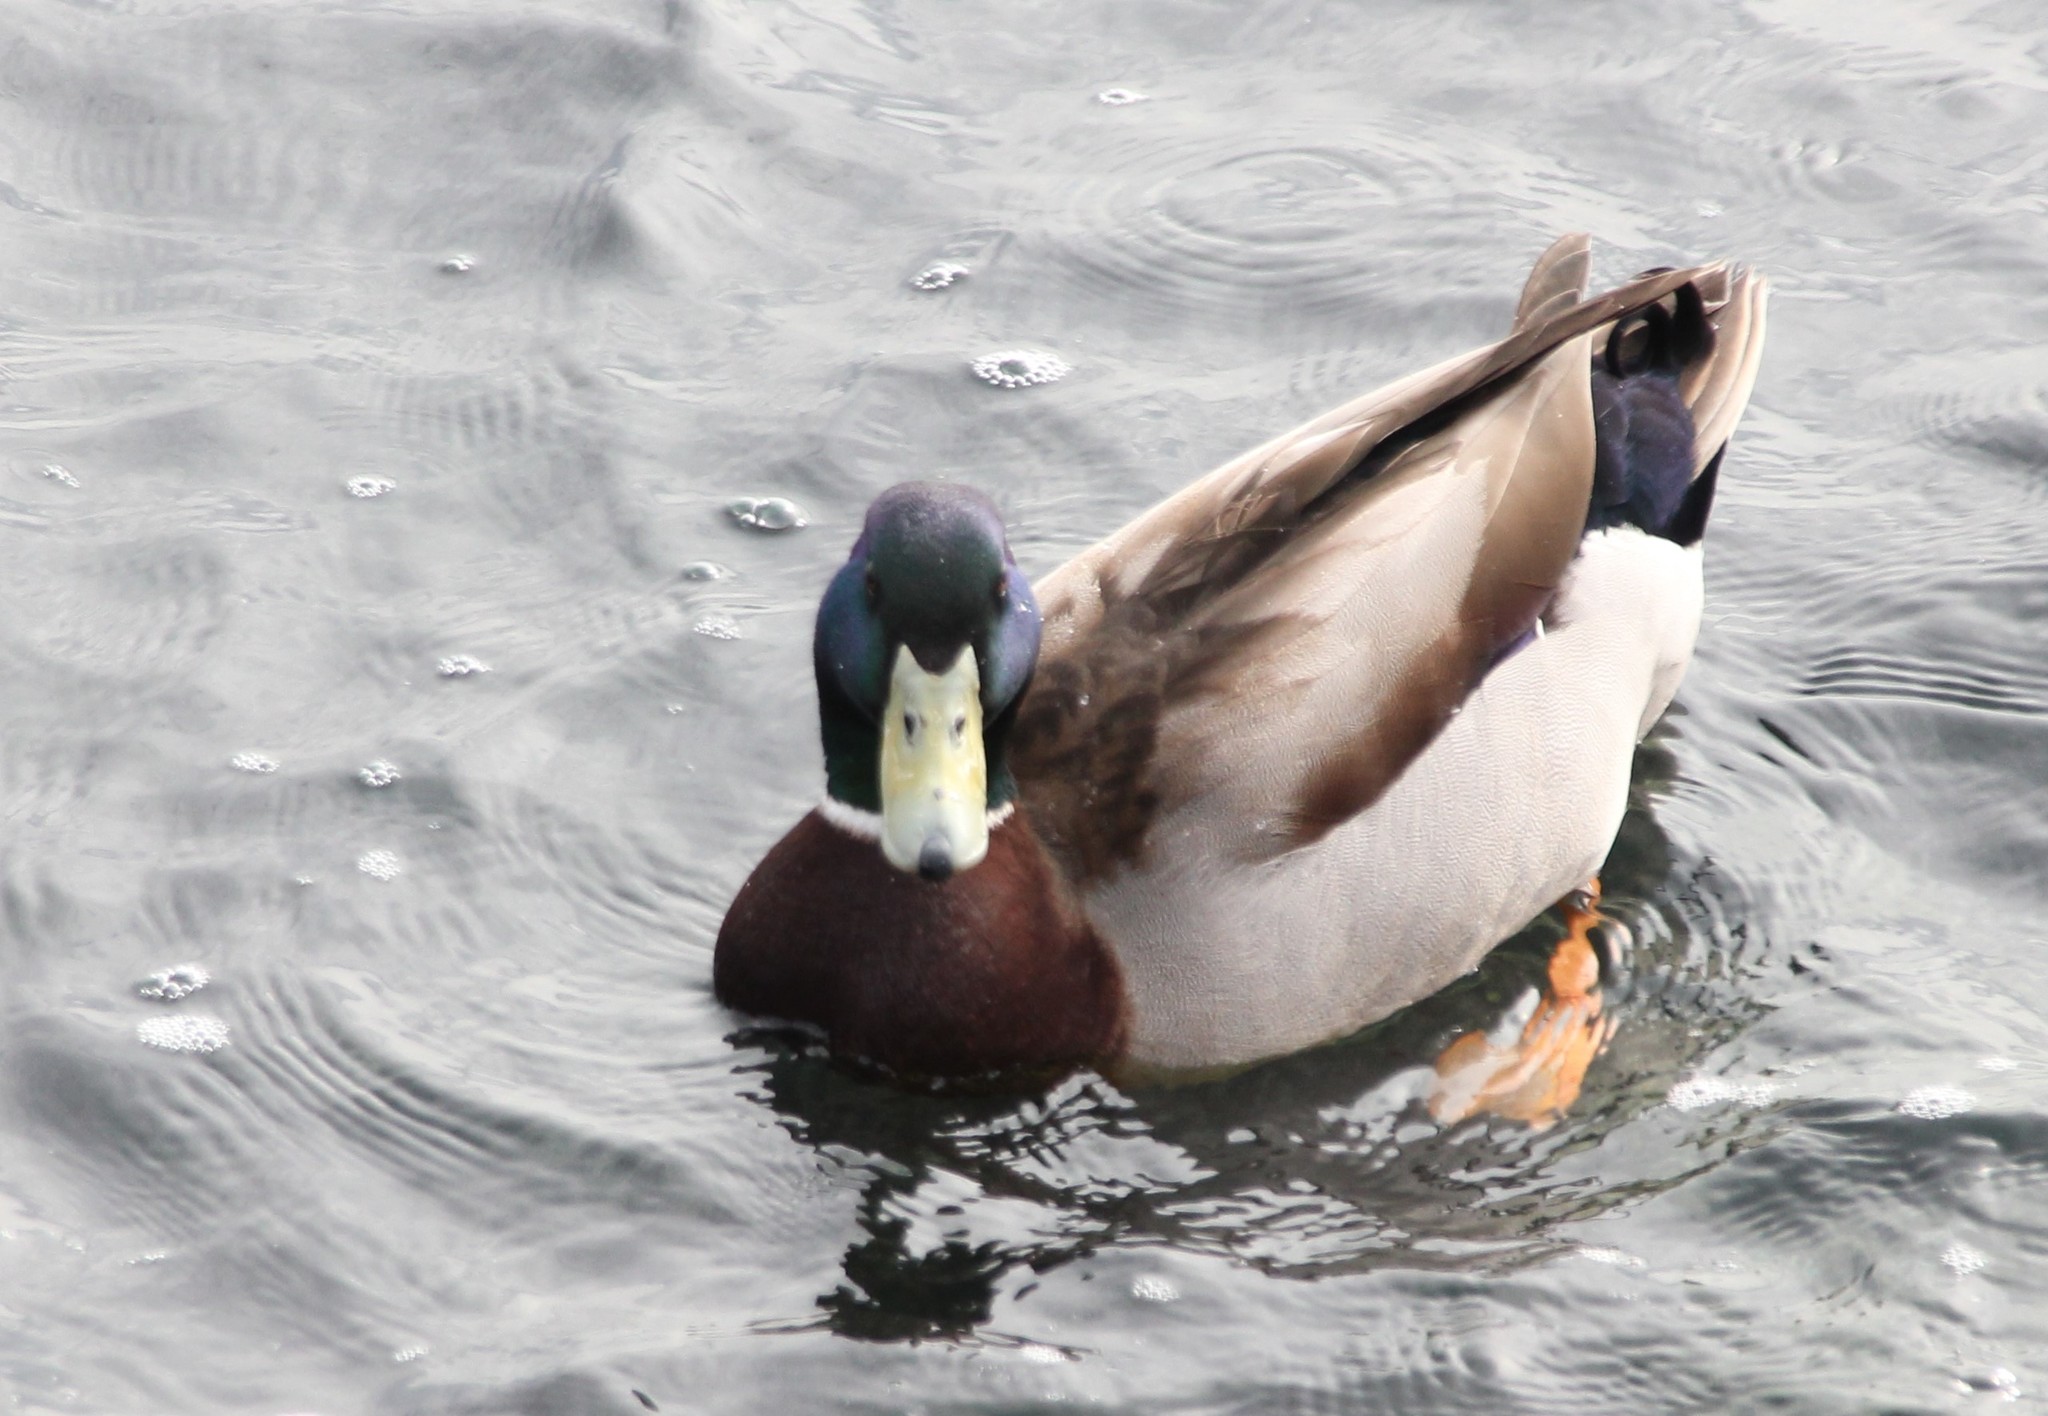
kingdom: Animalia
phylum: Chordata
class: Aves
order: Anseriformes
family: Anatidae
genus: Anas
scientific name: Anas platyrhynchos
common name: Mallard
